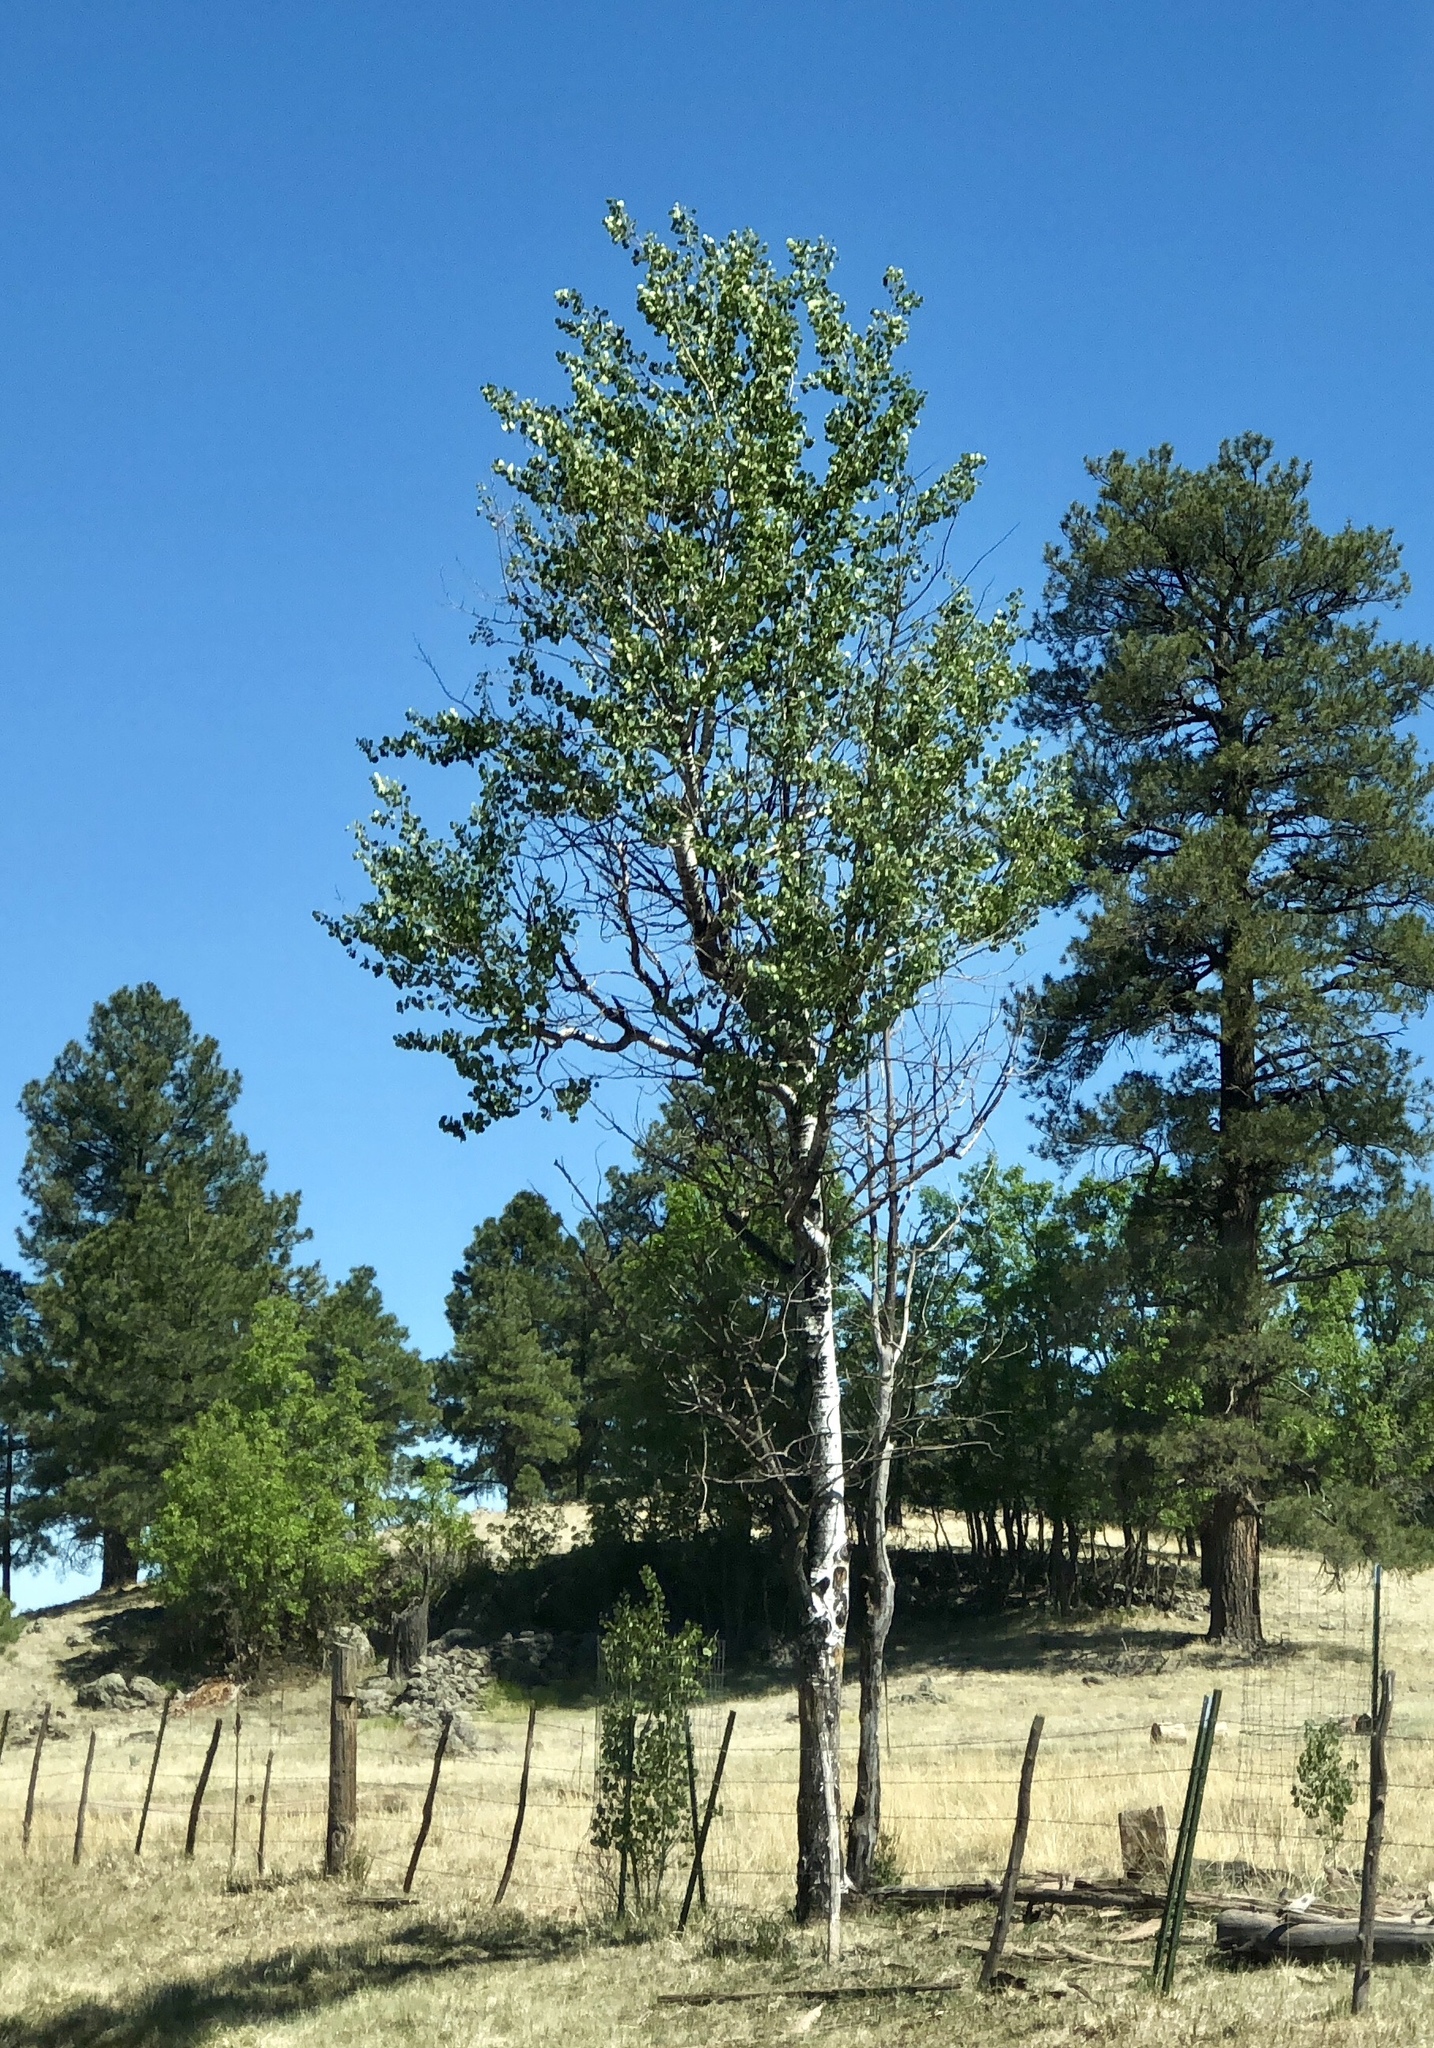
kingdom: Plantae
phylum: Tracheophyta
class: Magnoliopsida
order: Malpighiales
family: Salicaceae
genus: Populus
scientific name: Populus tremuloides
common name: Quaking aspen
